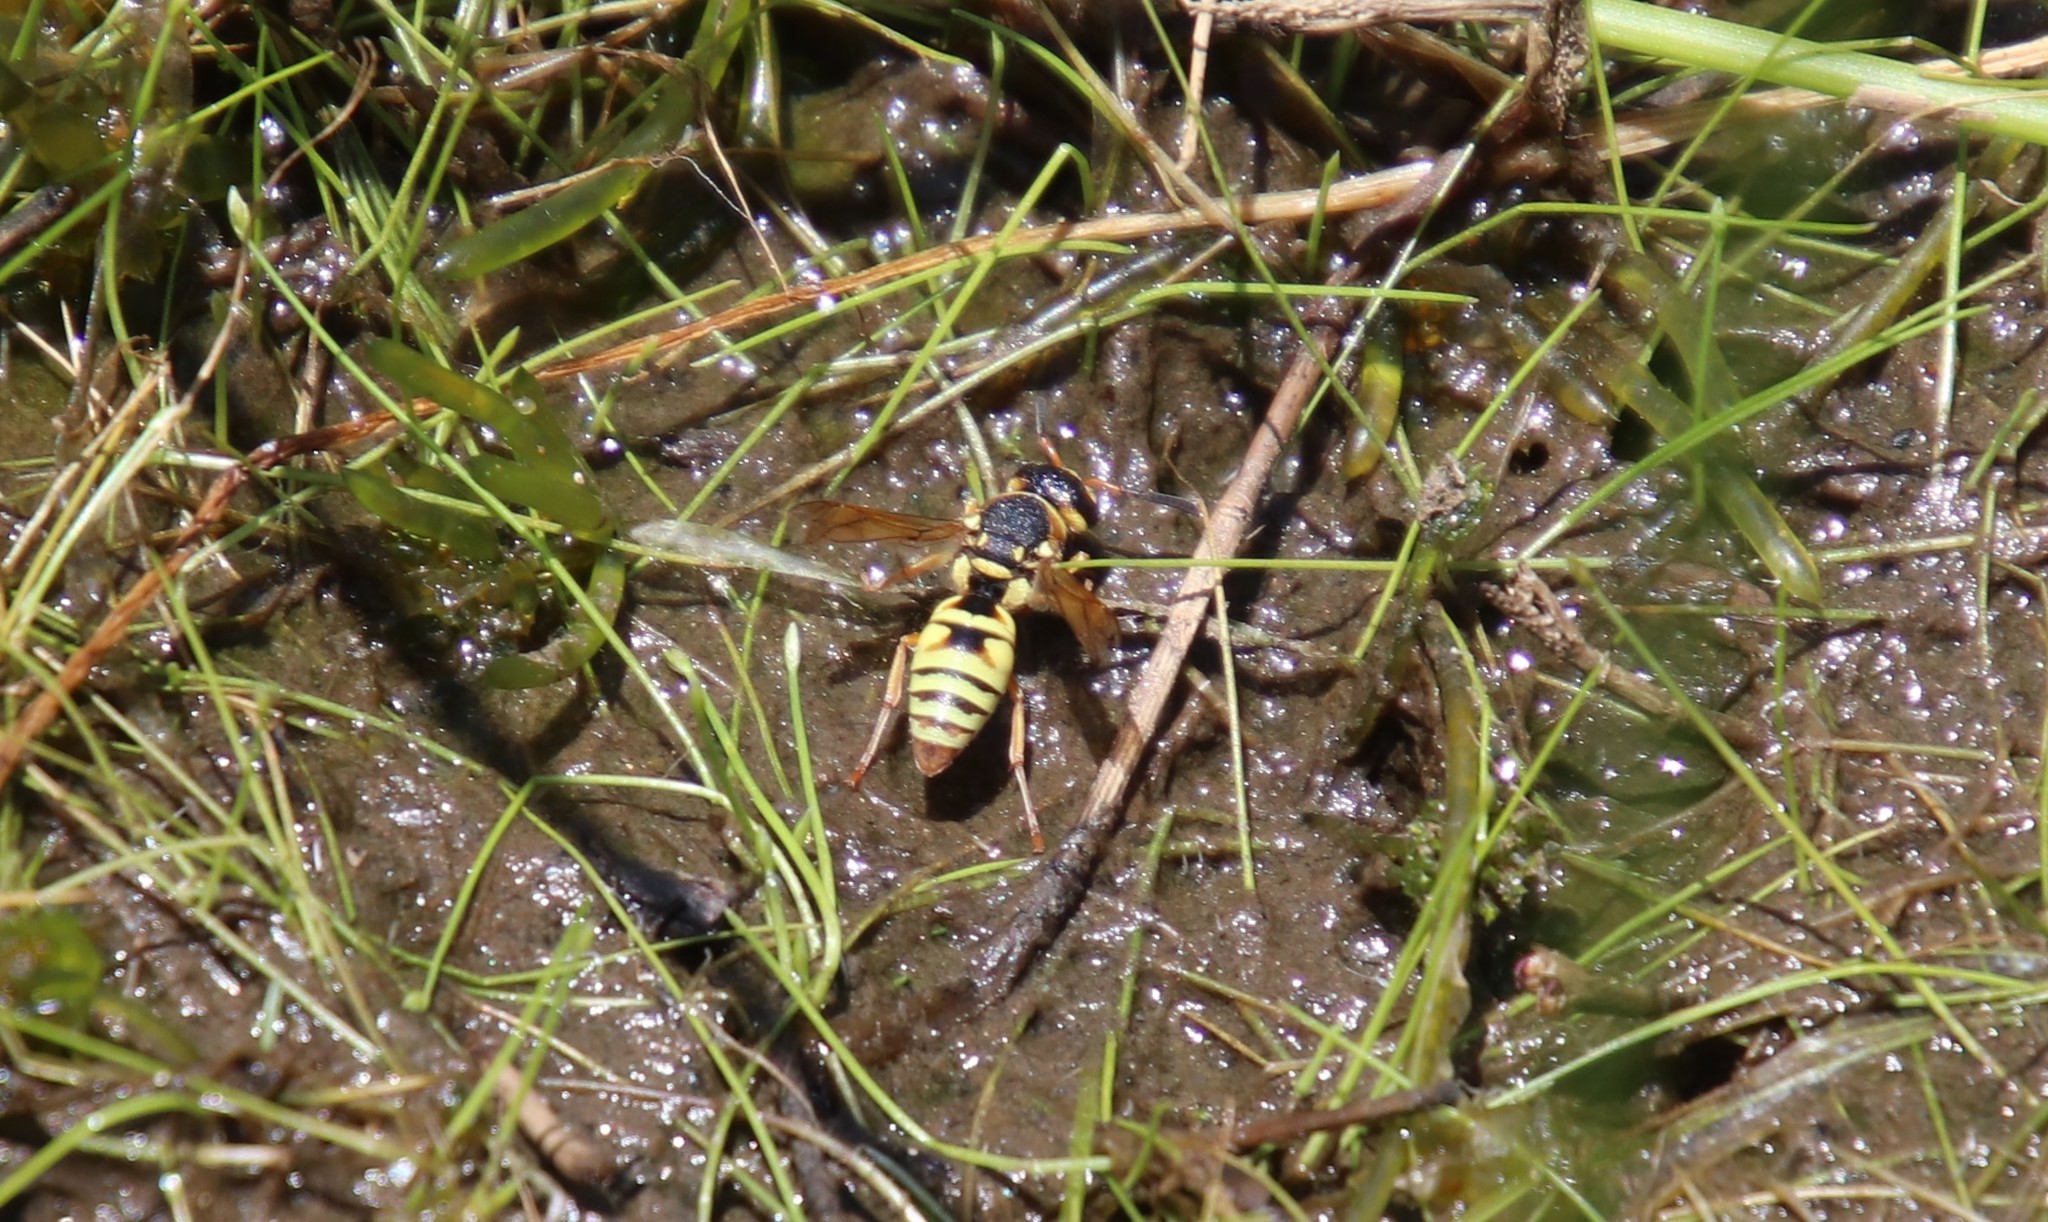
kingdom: Animalia
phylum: Arthropoda
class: Insecta
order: Hymenoptera
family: Eumenidae
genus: Euodynerus
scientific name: Euodynerus annulatus
